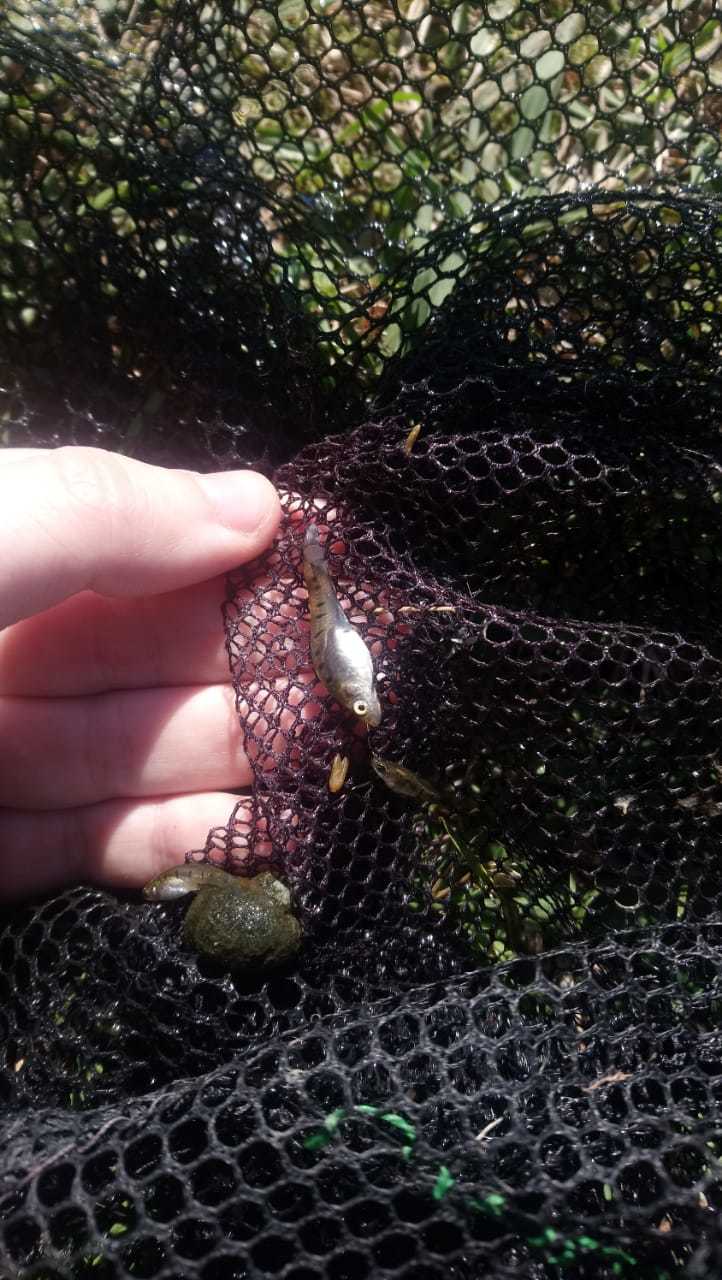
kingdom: Animalia
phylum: Chordata
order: Cyprinodontiformes
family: Poeciliidae
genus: Cnesterodon
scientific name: Cnesterodon decemmaculatus
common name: Ten spotted live-bearer
